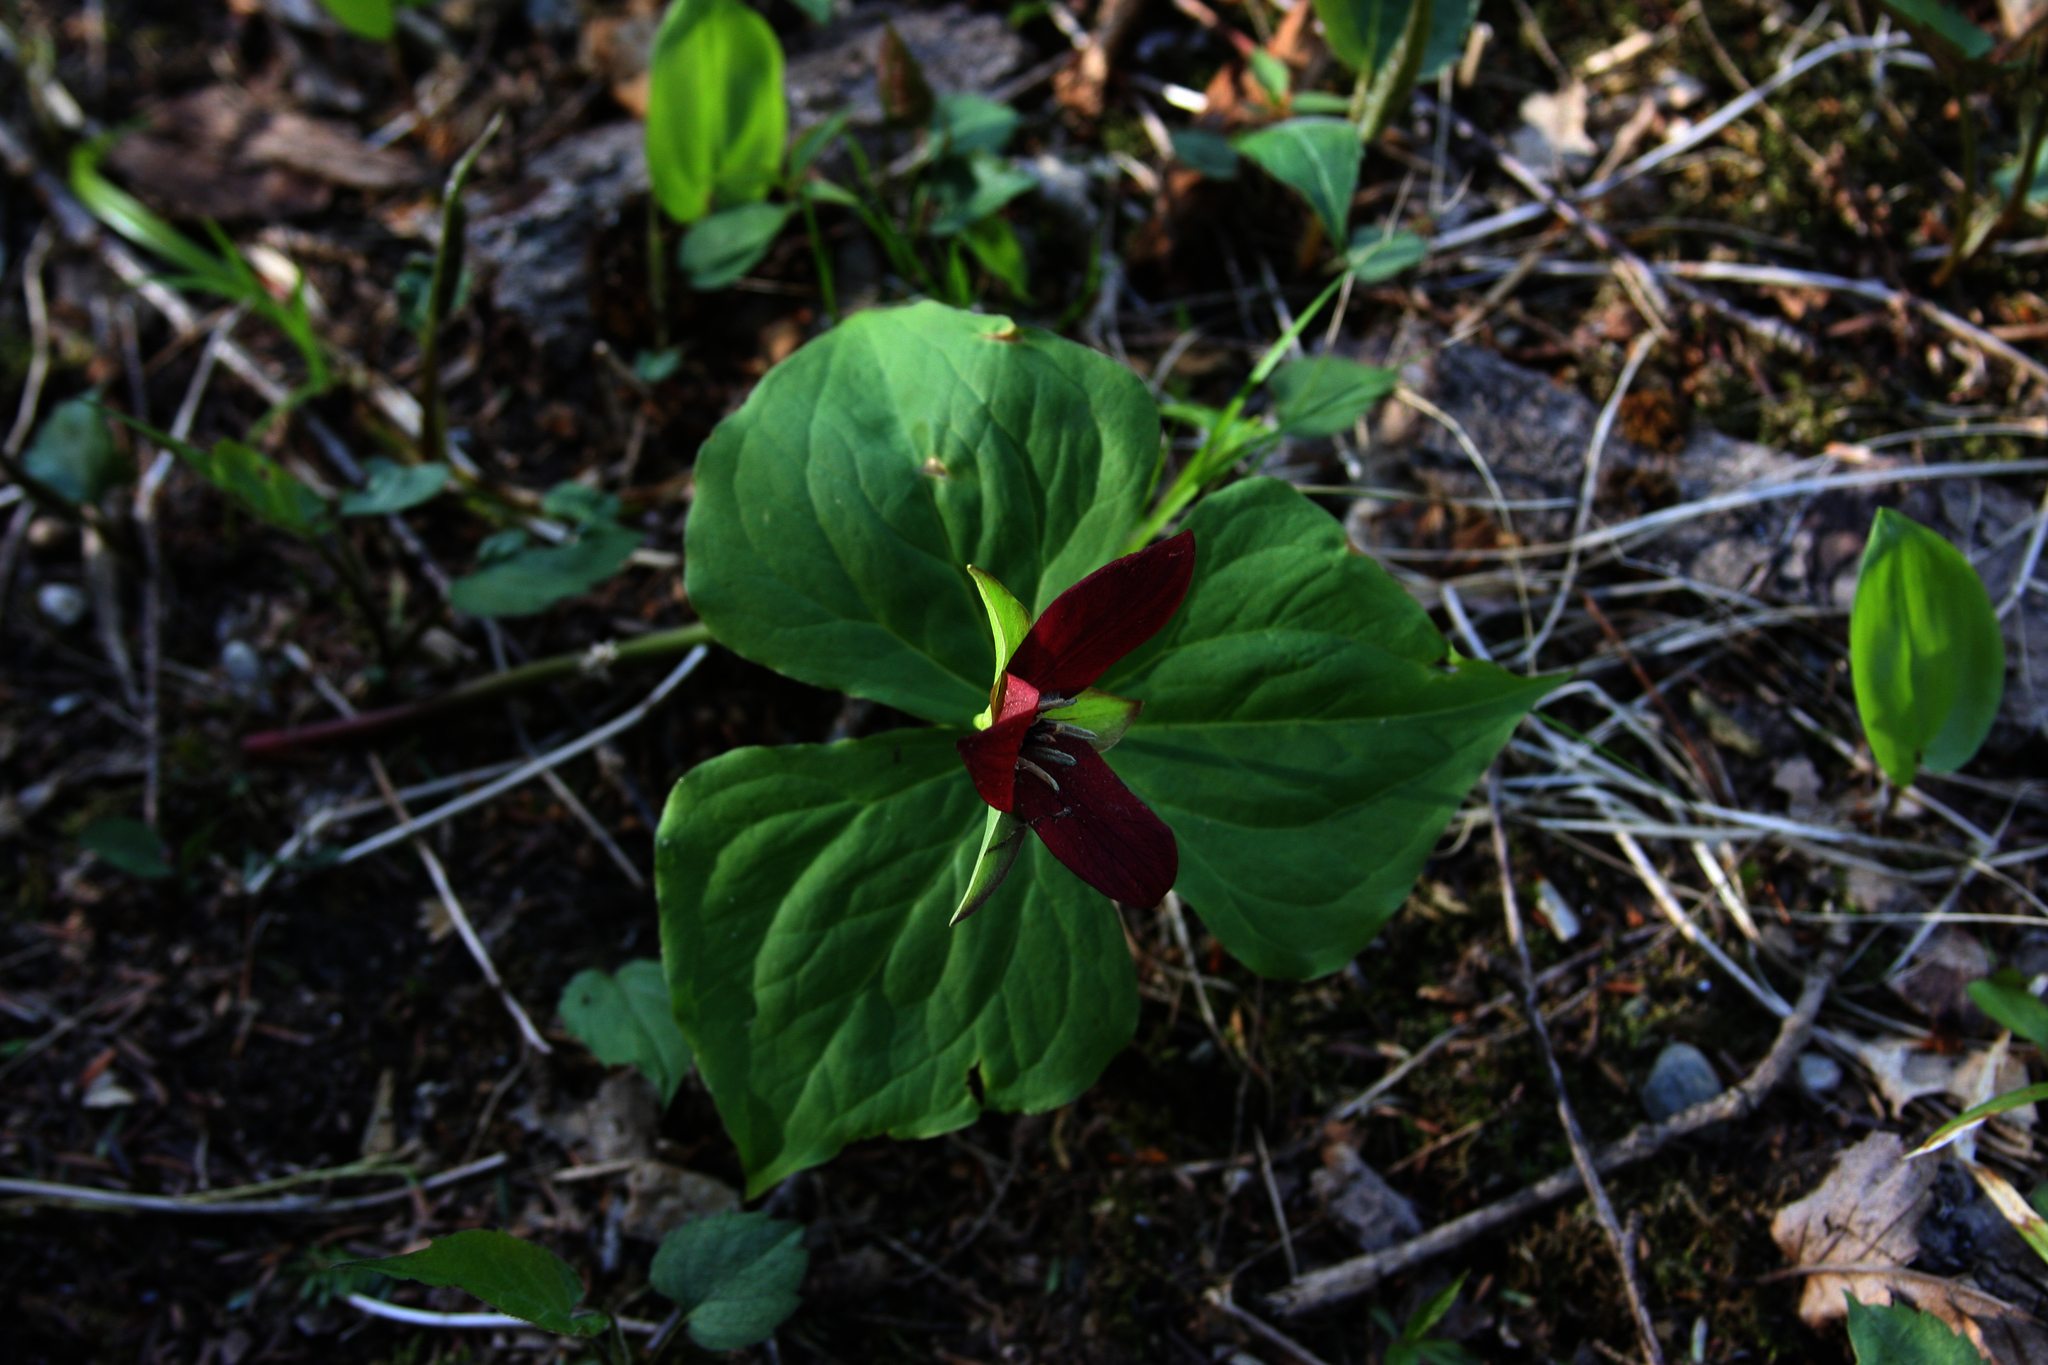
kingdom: Plantae
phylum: Tracheophyta
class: Liliopsida
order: Liliales
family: Melanthiaceae
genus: Trillium
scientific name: Trillium erectum
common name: Purple trillium
